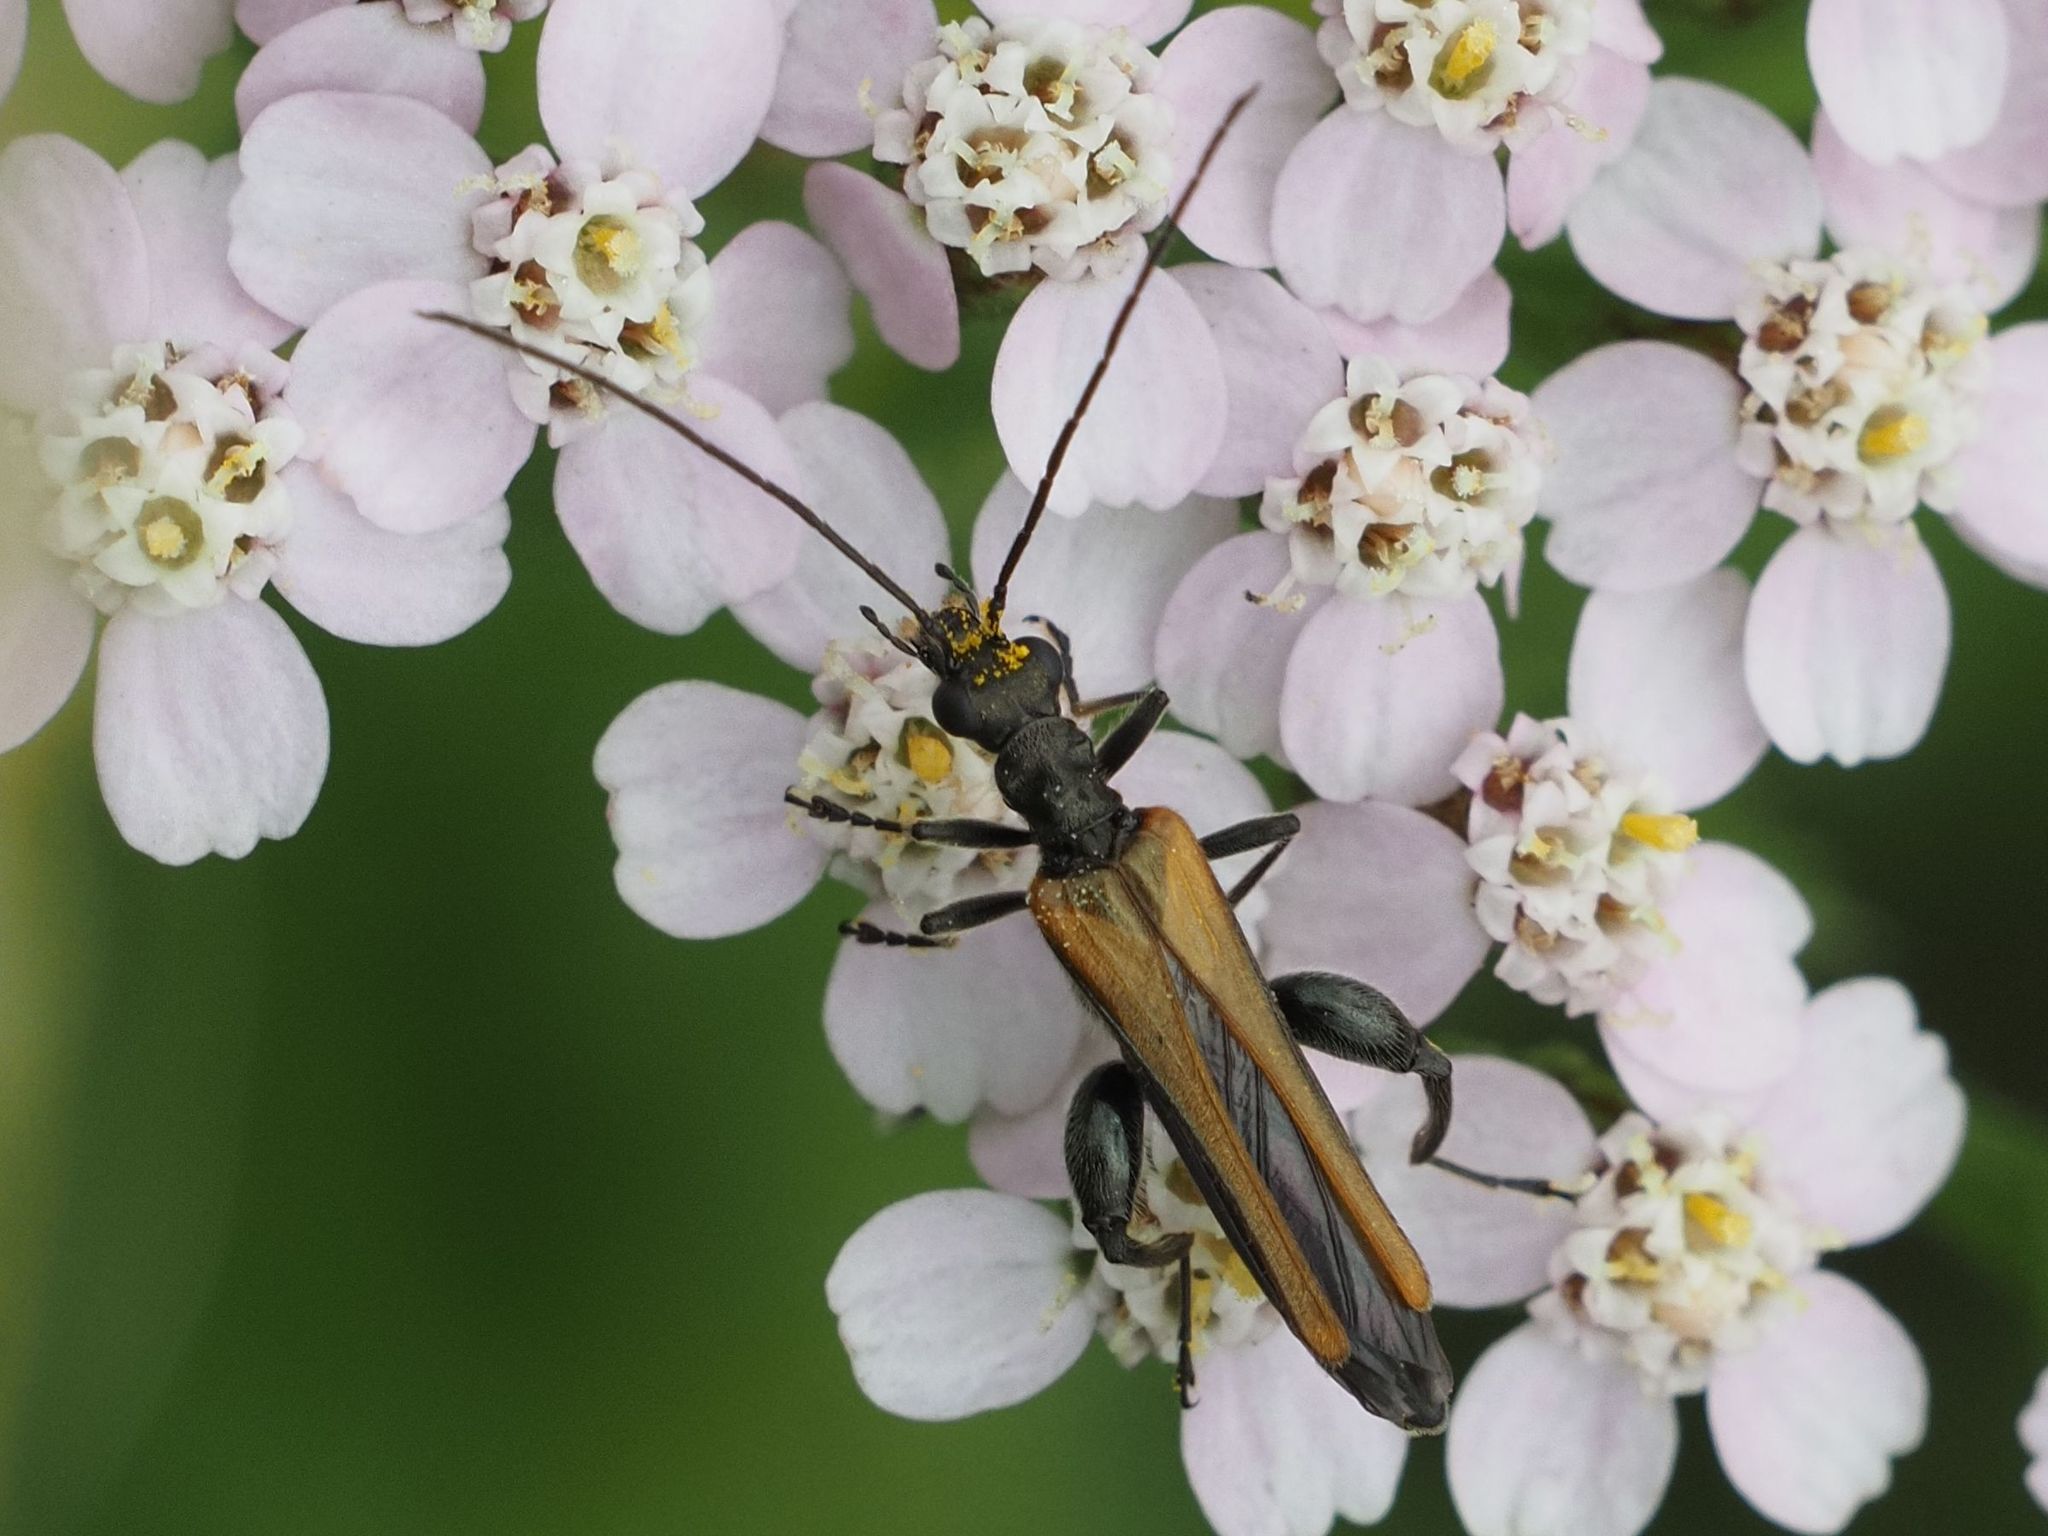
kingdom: Animalia
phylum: Arthropoda
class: Insecta
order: Coleoptera
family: Oedemeridae
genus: Oedemera
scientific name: Oedemera femorata
